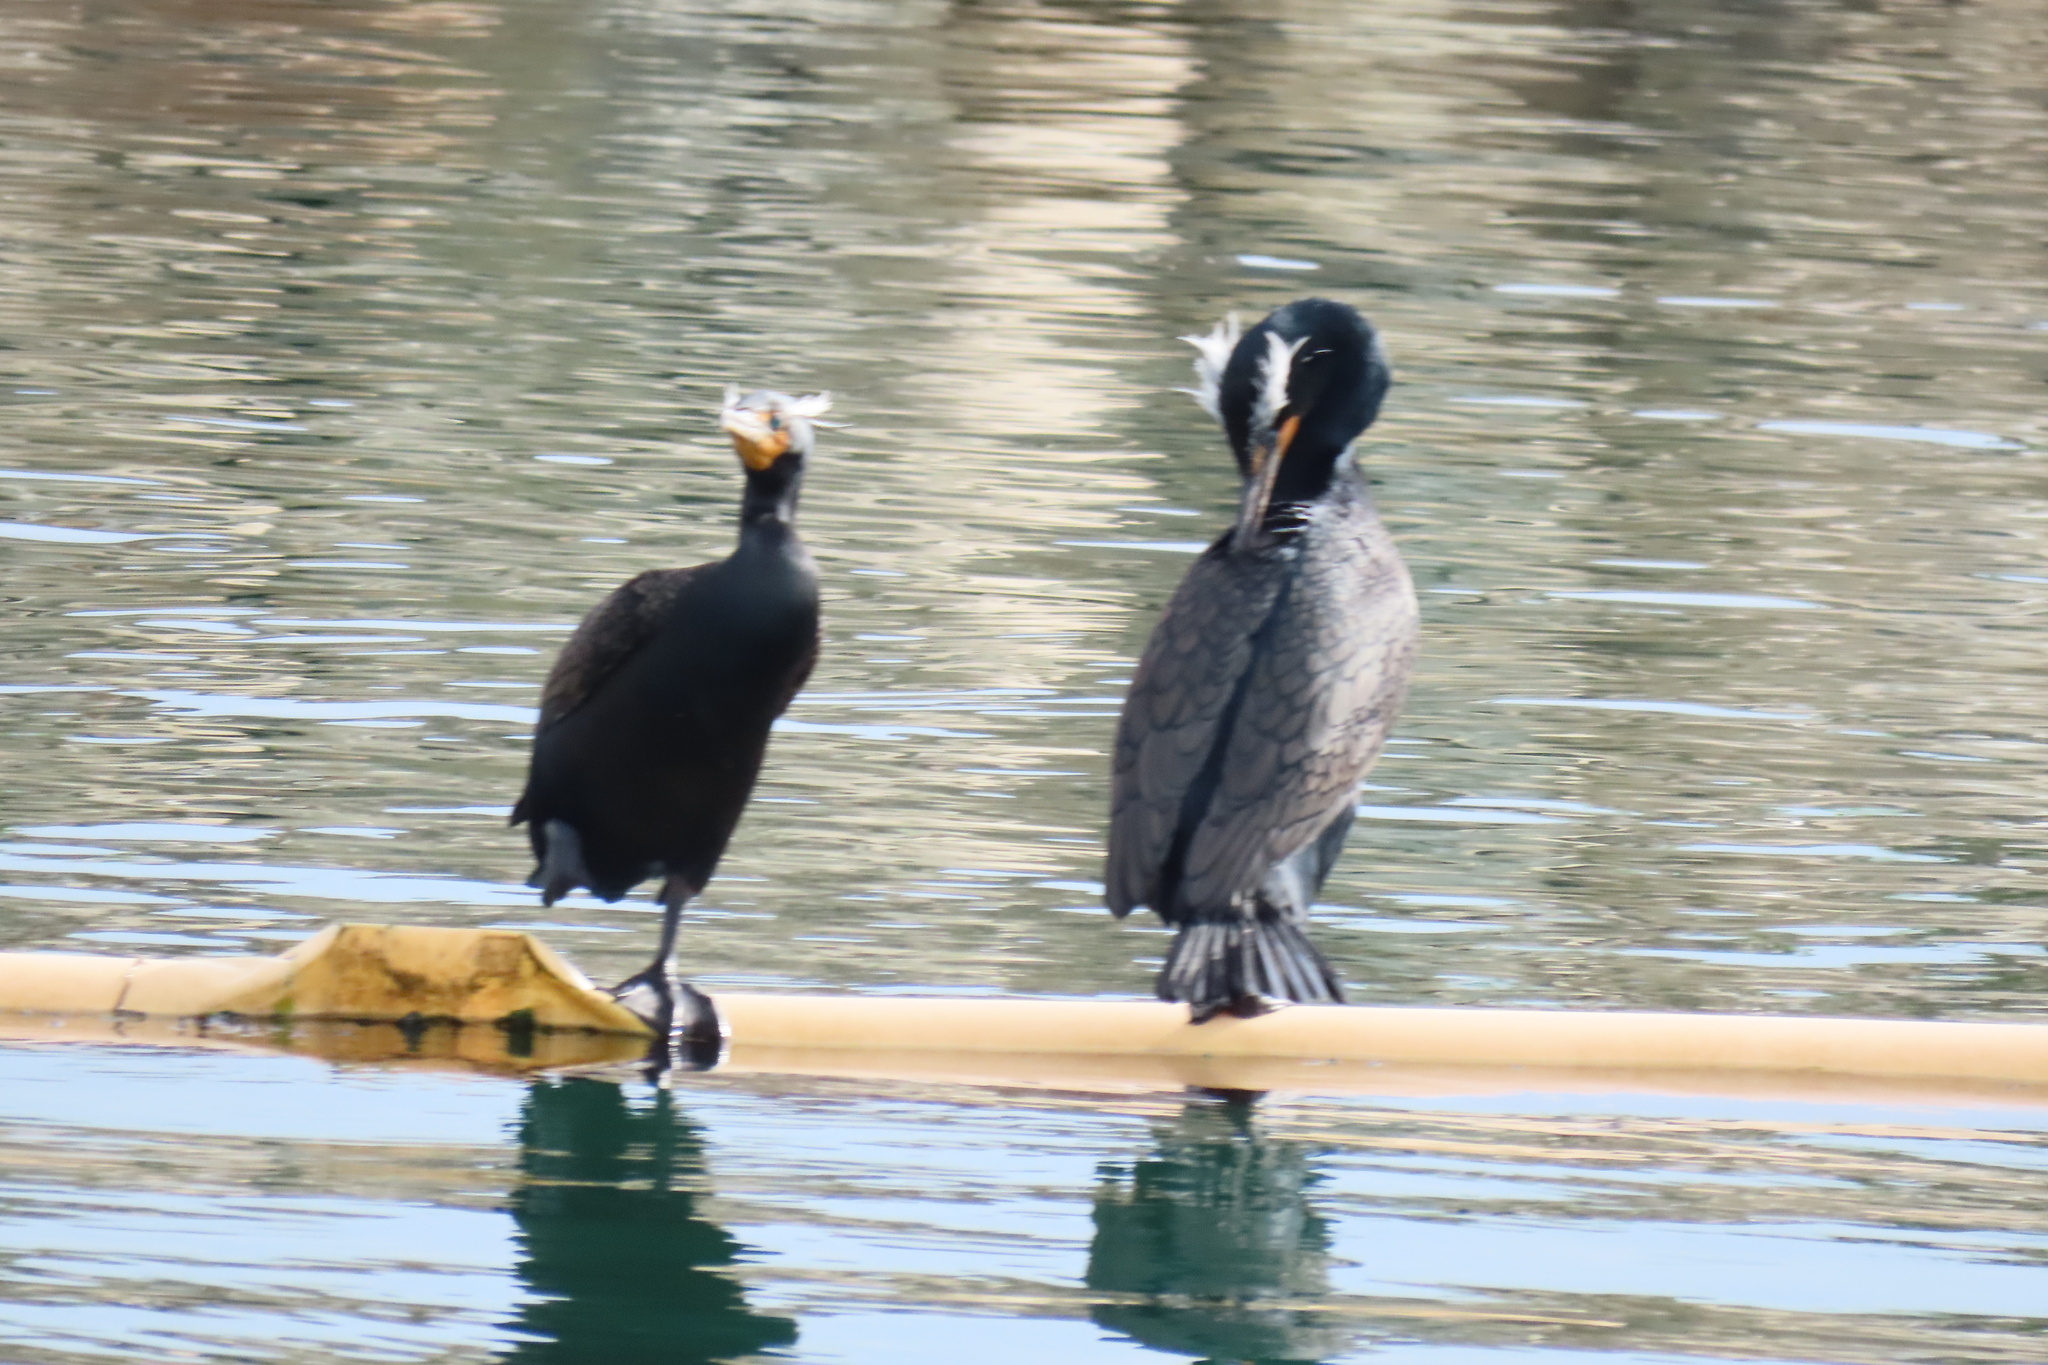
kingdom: Animalia
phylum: Chordata
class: Aves
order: Suliformes
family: Phalacrocoracidae
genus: Phalacrocorax
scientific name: Phalacrocorax auritus
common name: Double-crested cormorant
